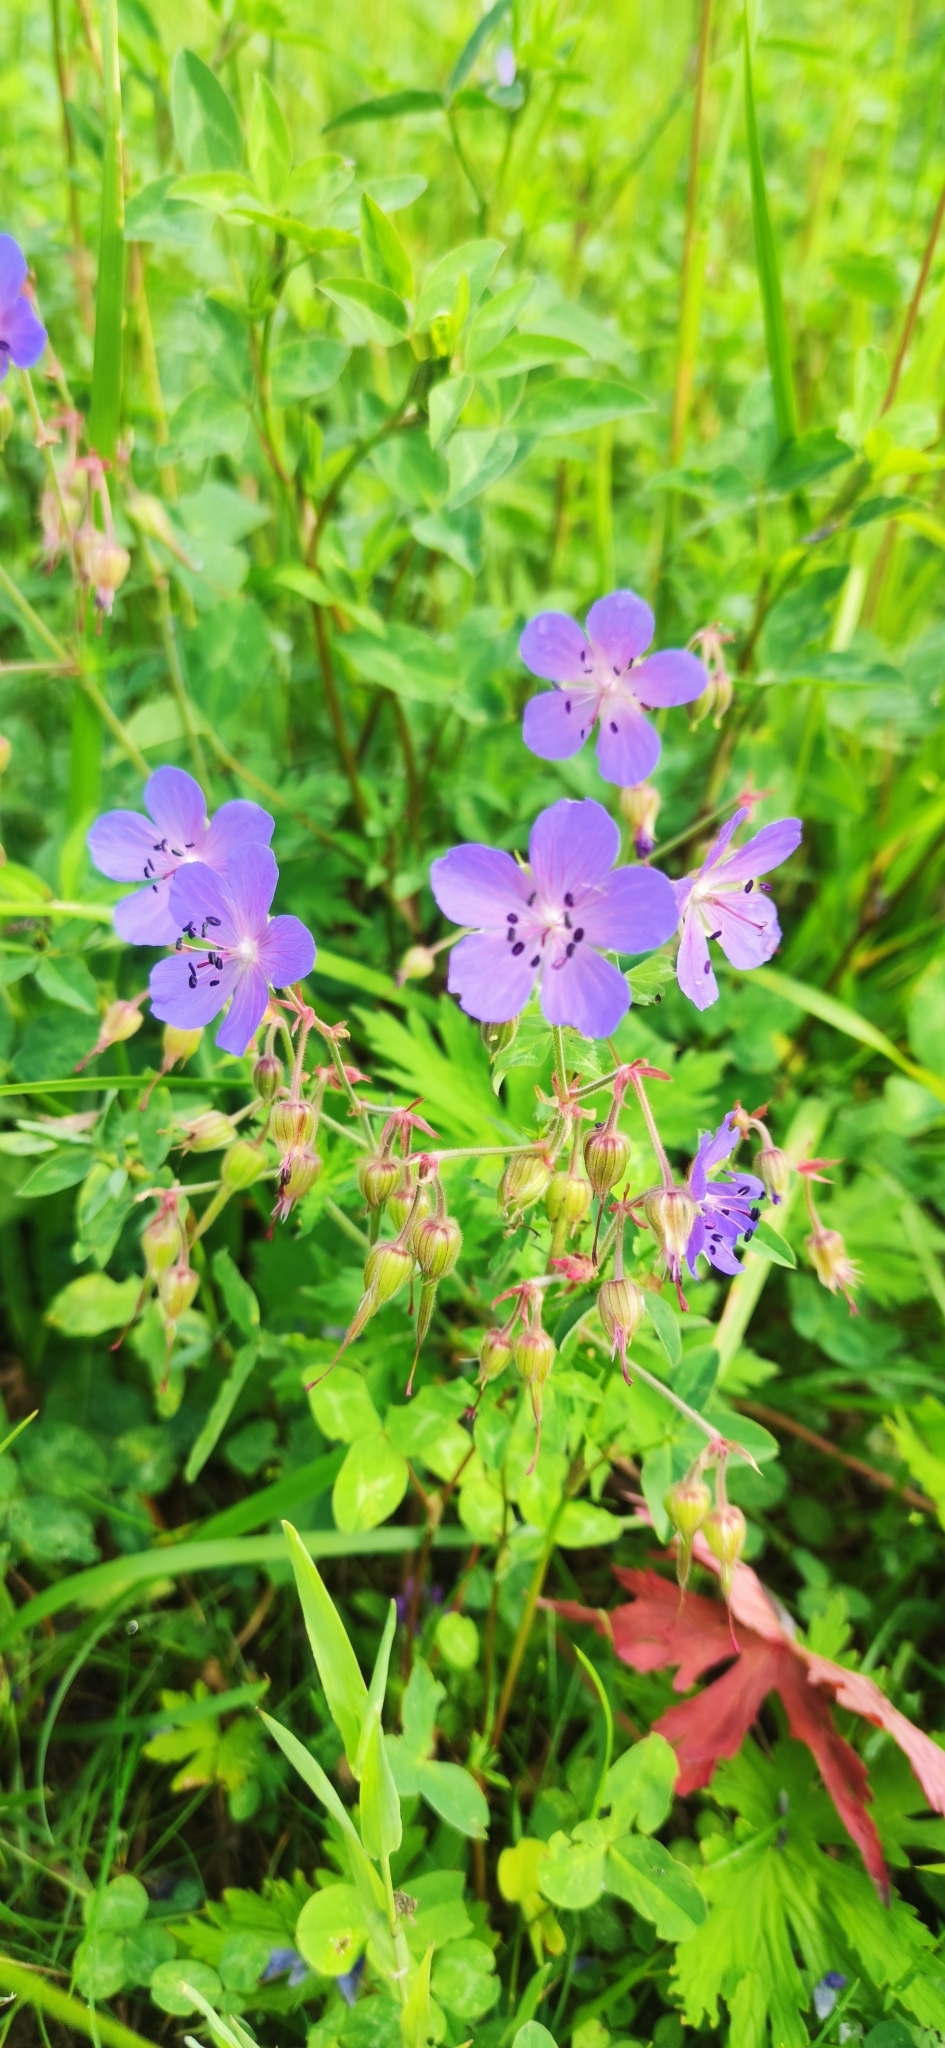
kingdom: Plantae
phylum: Tracheophyta
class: Magnoliopsida
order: Geraniales
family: Geraniaceae
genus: Geranium
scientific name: Geranium pratense
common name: Meadow crane's-bill
